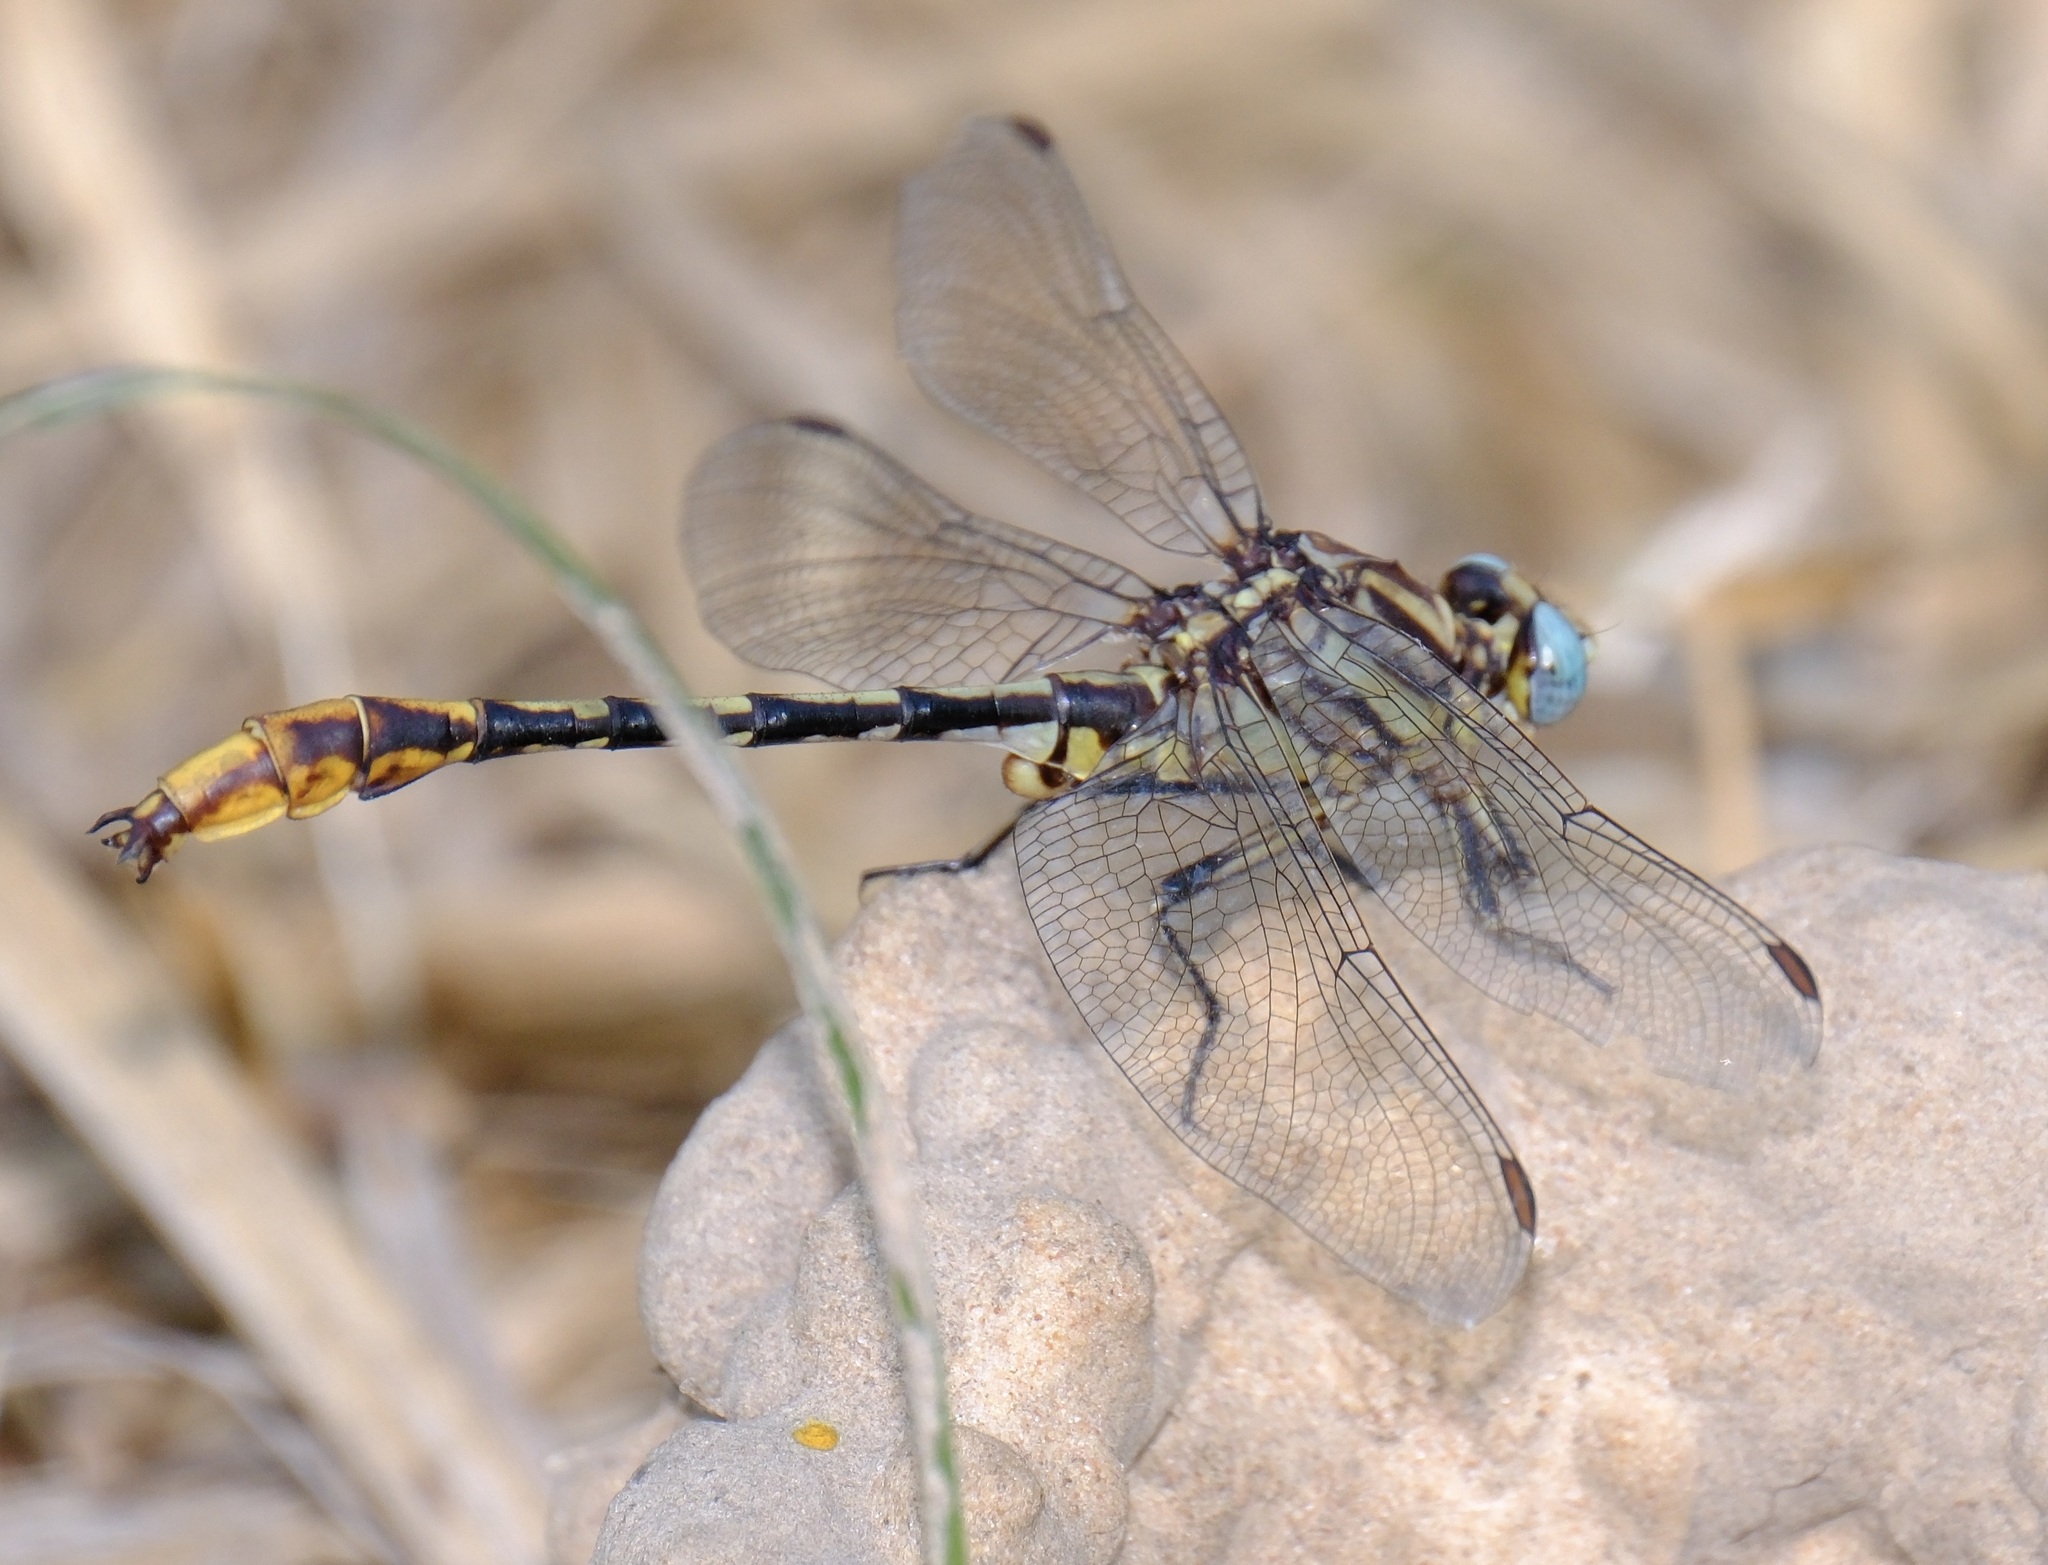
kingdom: Animalia
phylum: Arthropoda
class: Insecta
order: Odonata
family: Gomphidae
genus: Phanogomphus
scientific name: Phanogomphus militaris
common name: Sulphur-tipped clubtail
